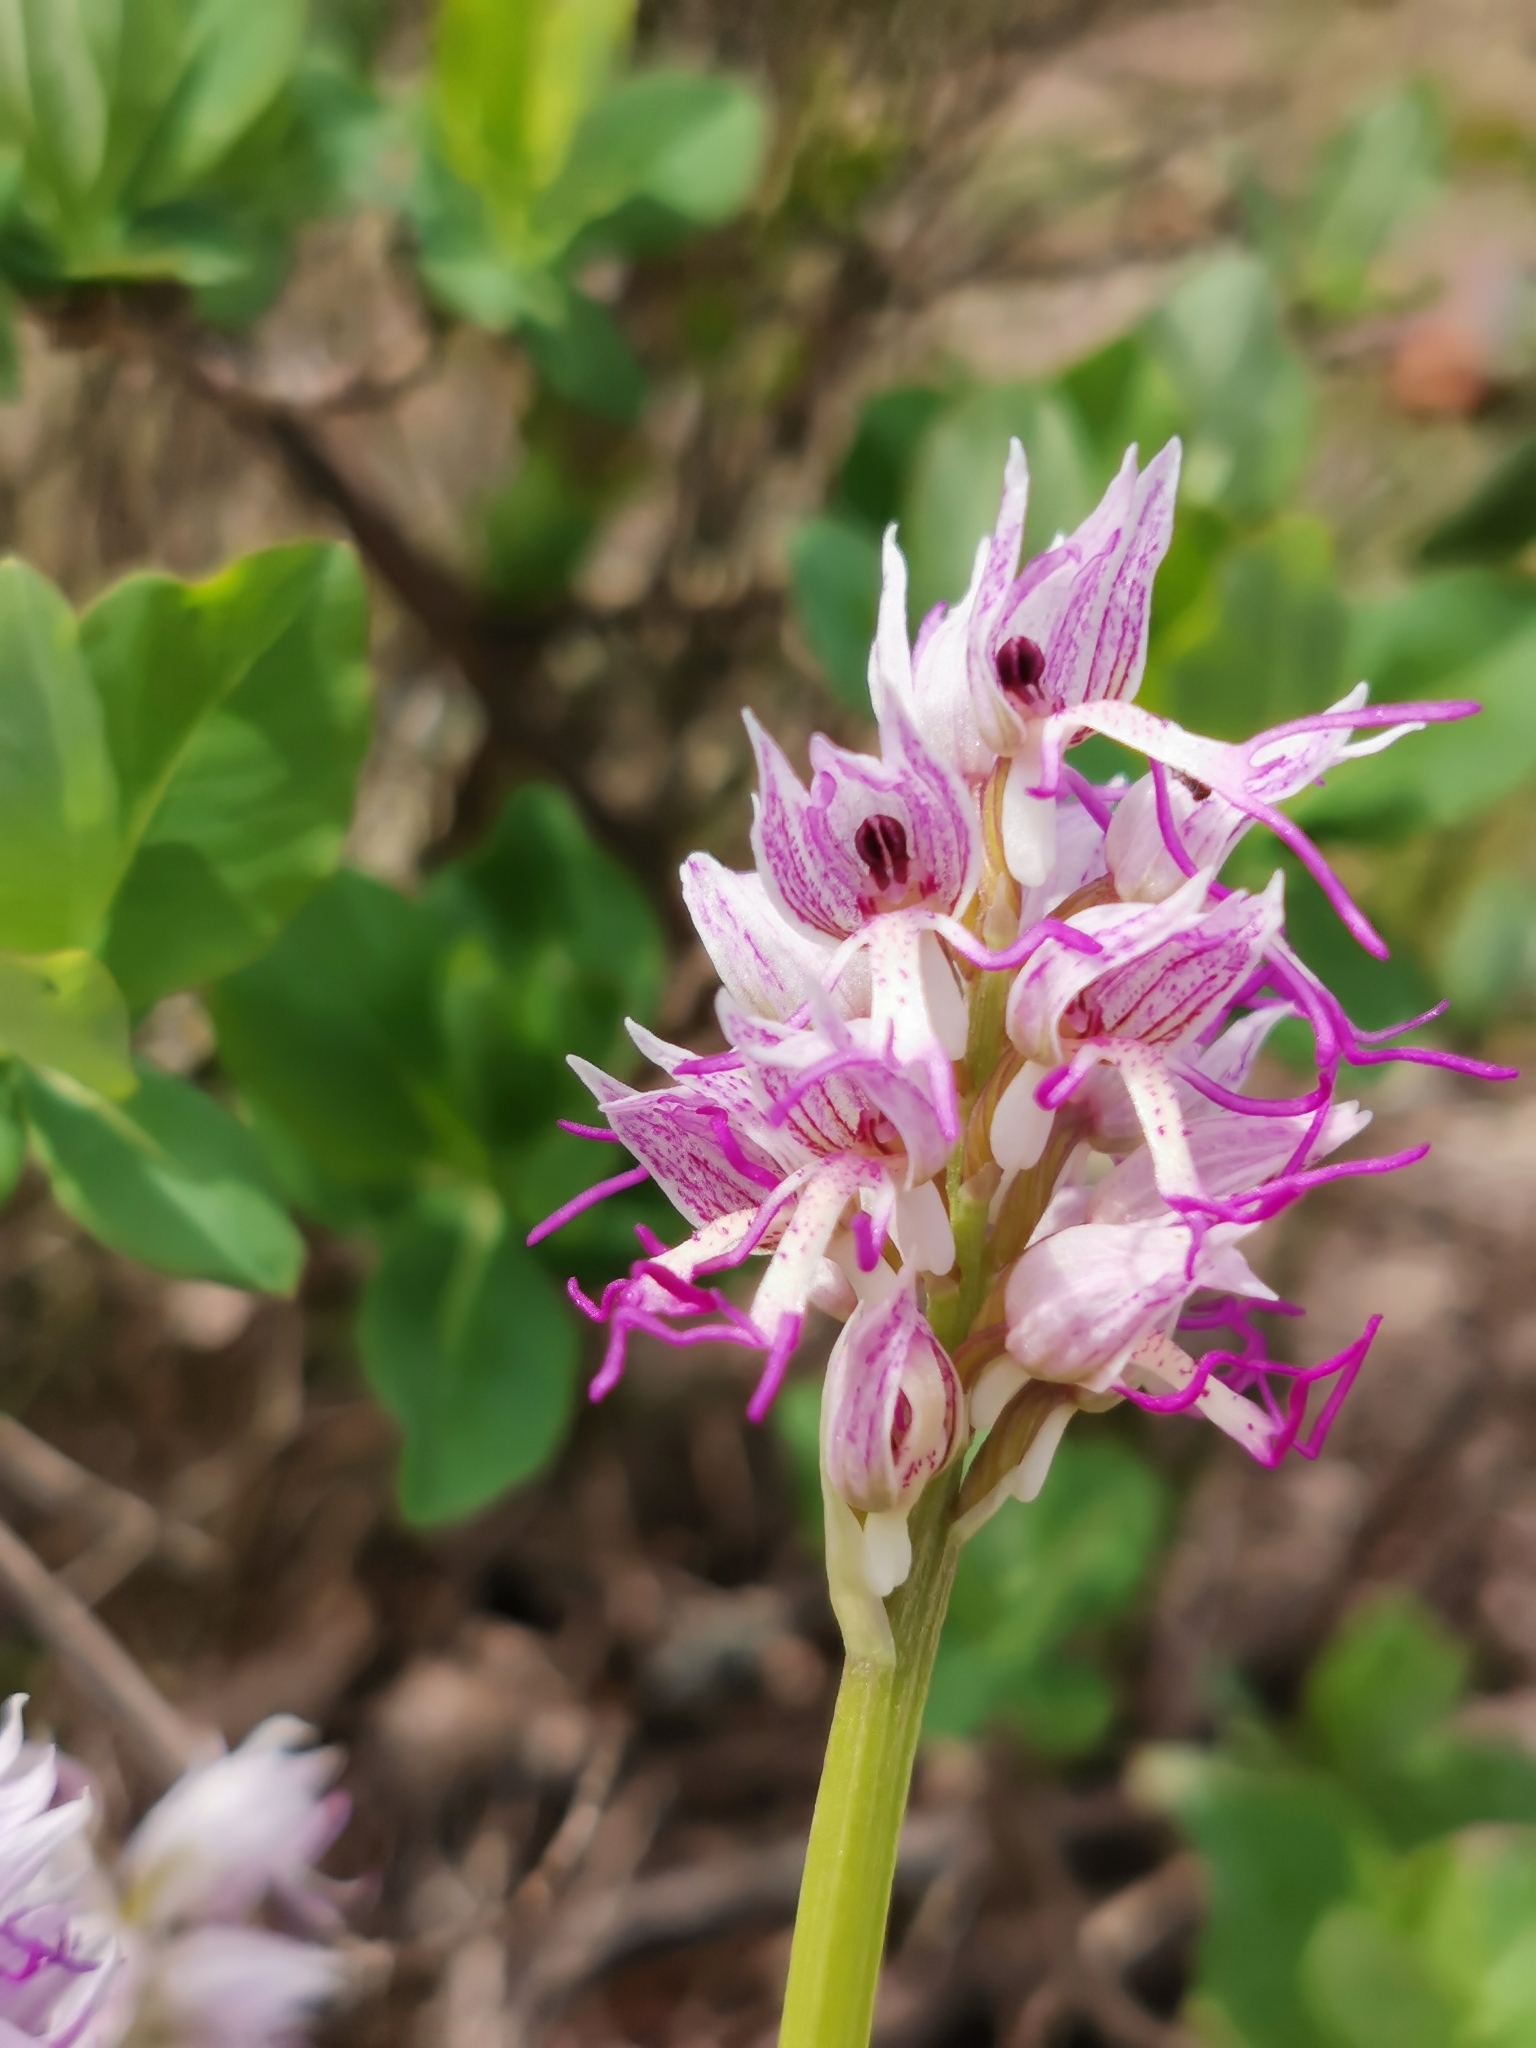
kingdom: Plantae
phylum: Tracheophyta
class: Liliopsida
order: Asparagales
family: Orchidaceae
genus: Orchis
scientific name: Orchis simia
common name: Monkey orchid
